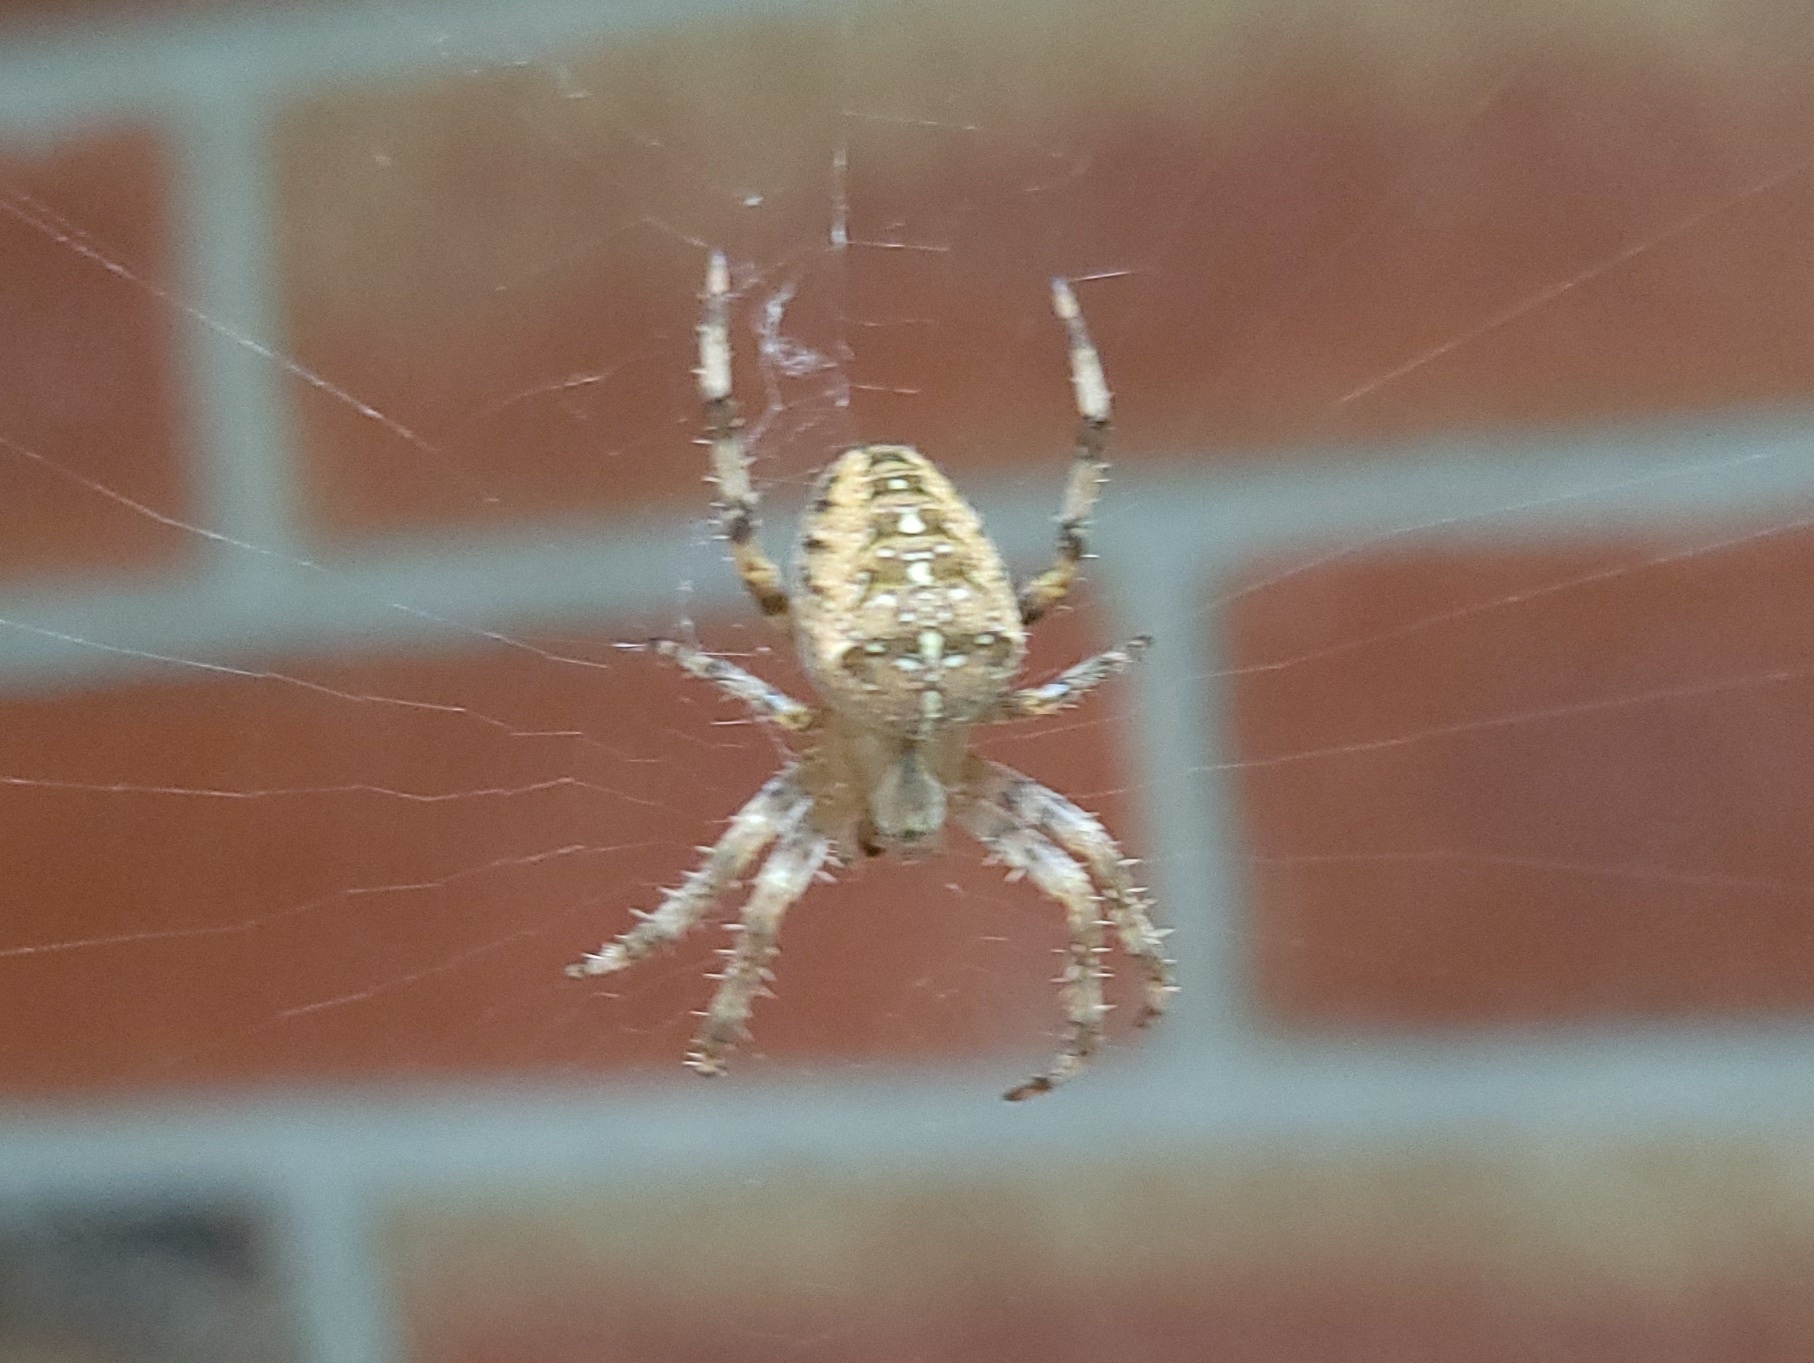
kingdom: Animalia
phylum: Arthropoda
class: Arachnida
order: Araneae
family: Araneidae
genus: Araneus
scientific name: Araneus diadematus
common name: Cross orbweaver
